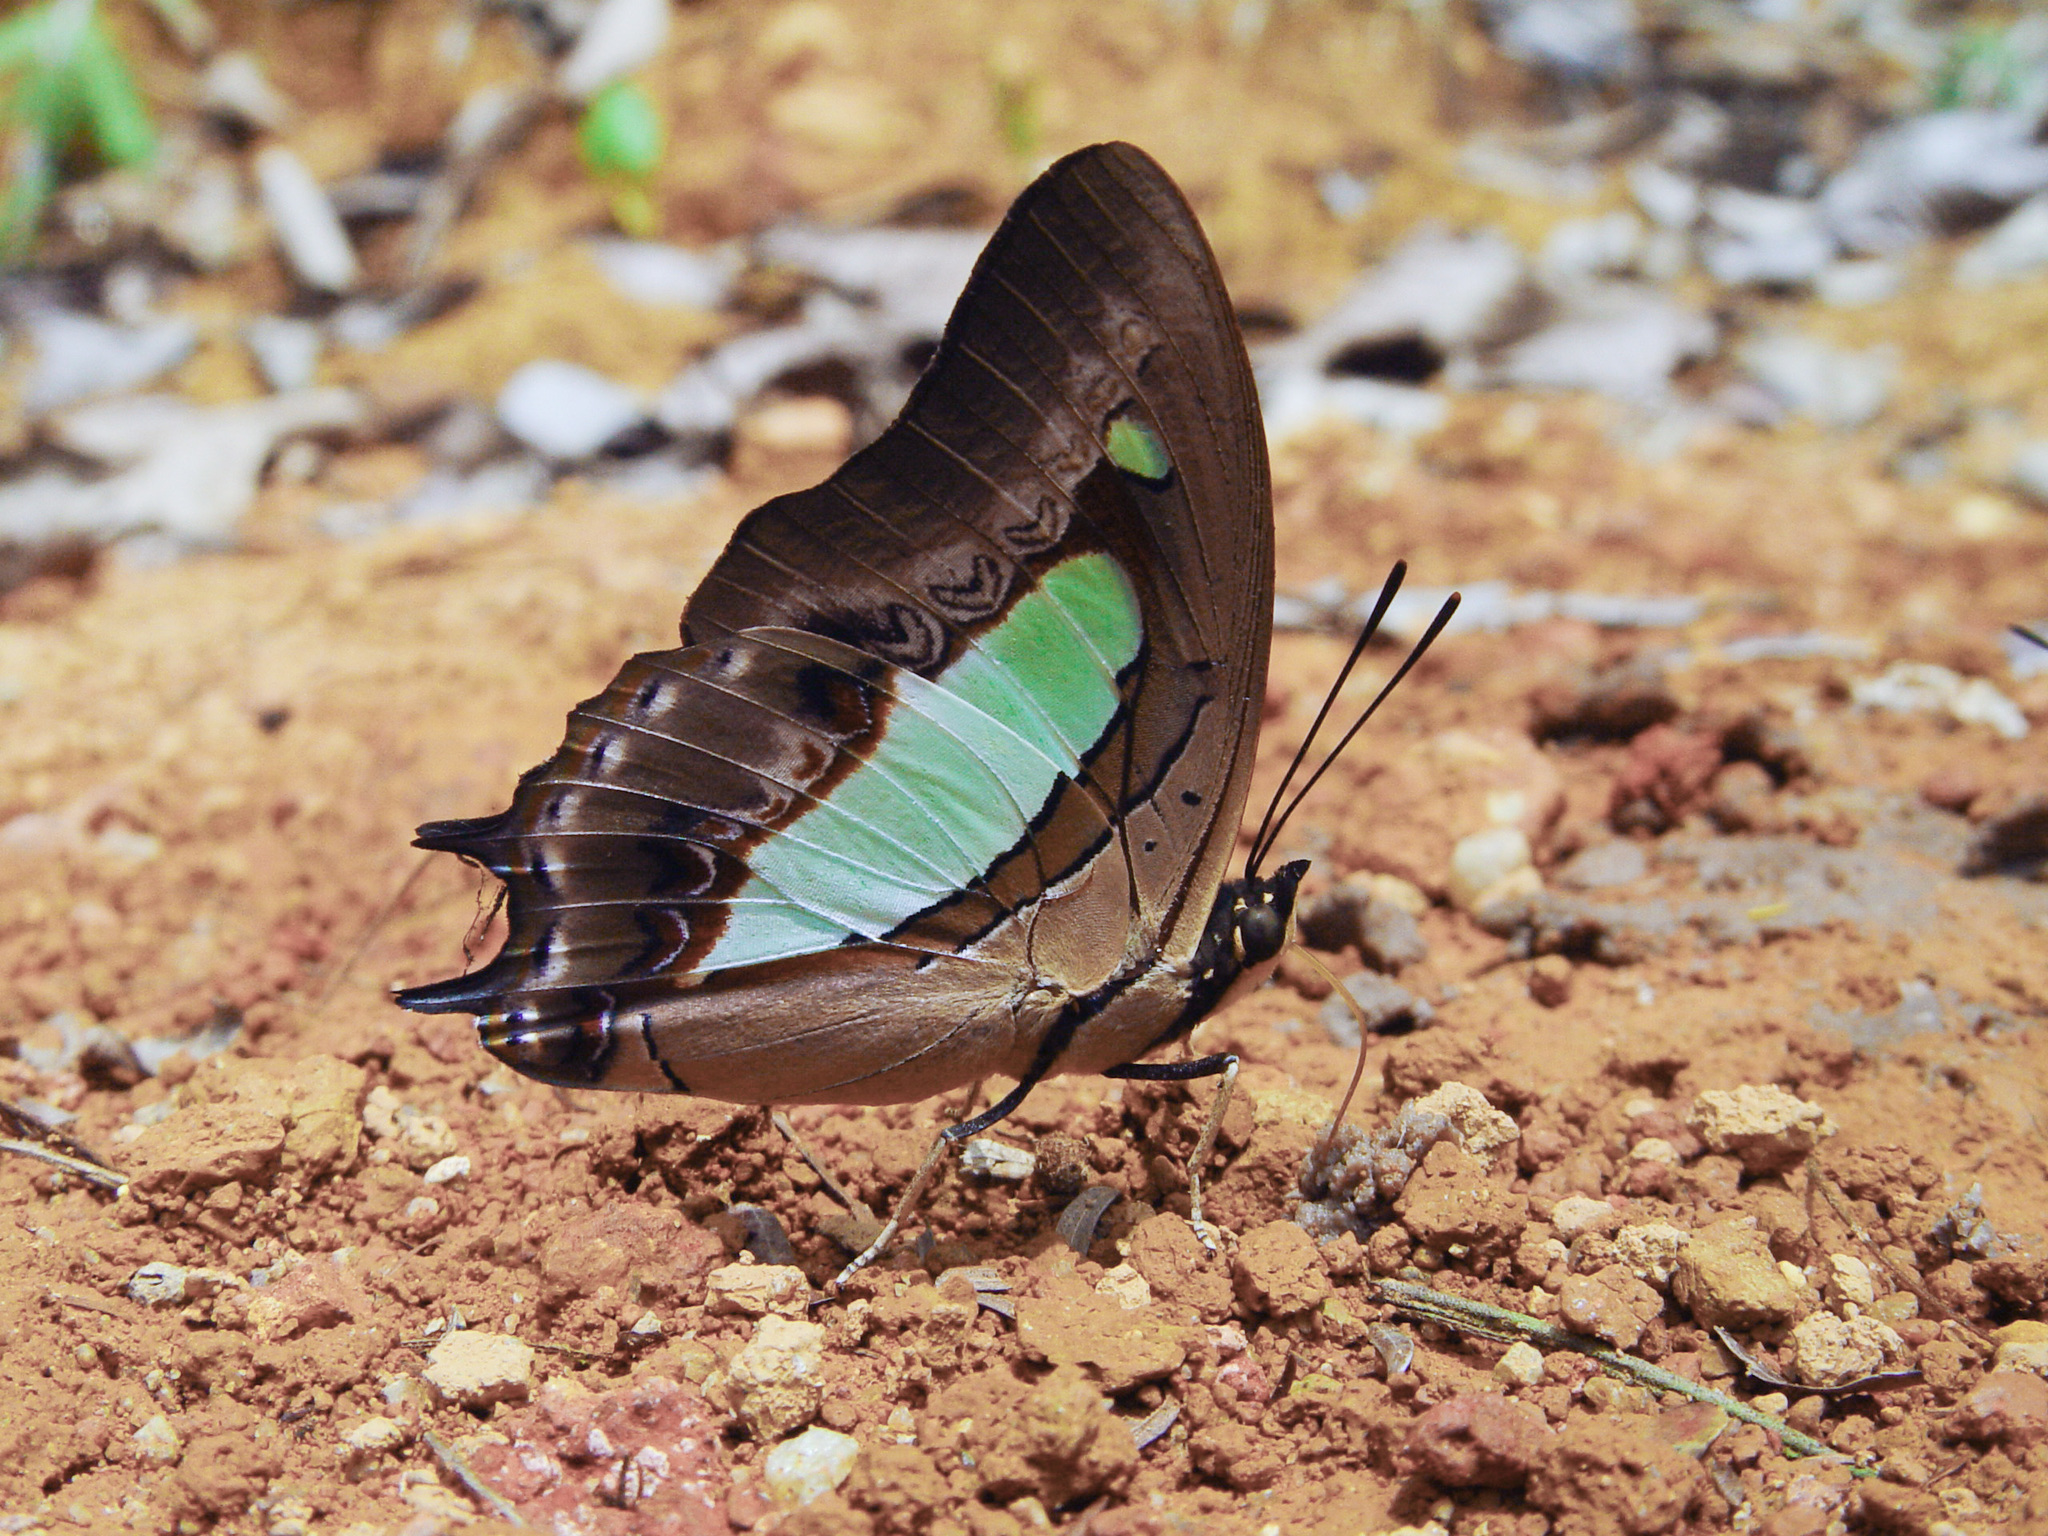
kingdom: Animalia
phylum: Arthropoda
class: Insecta
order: Lepidoptera
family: Nymphalidae
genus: Polyura
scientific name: Polyura athamas
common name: Common nawab
